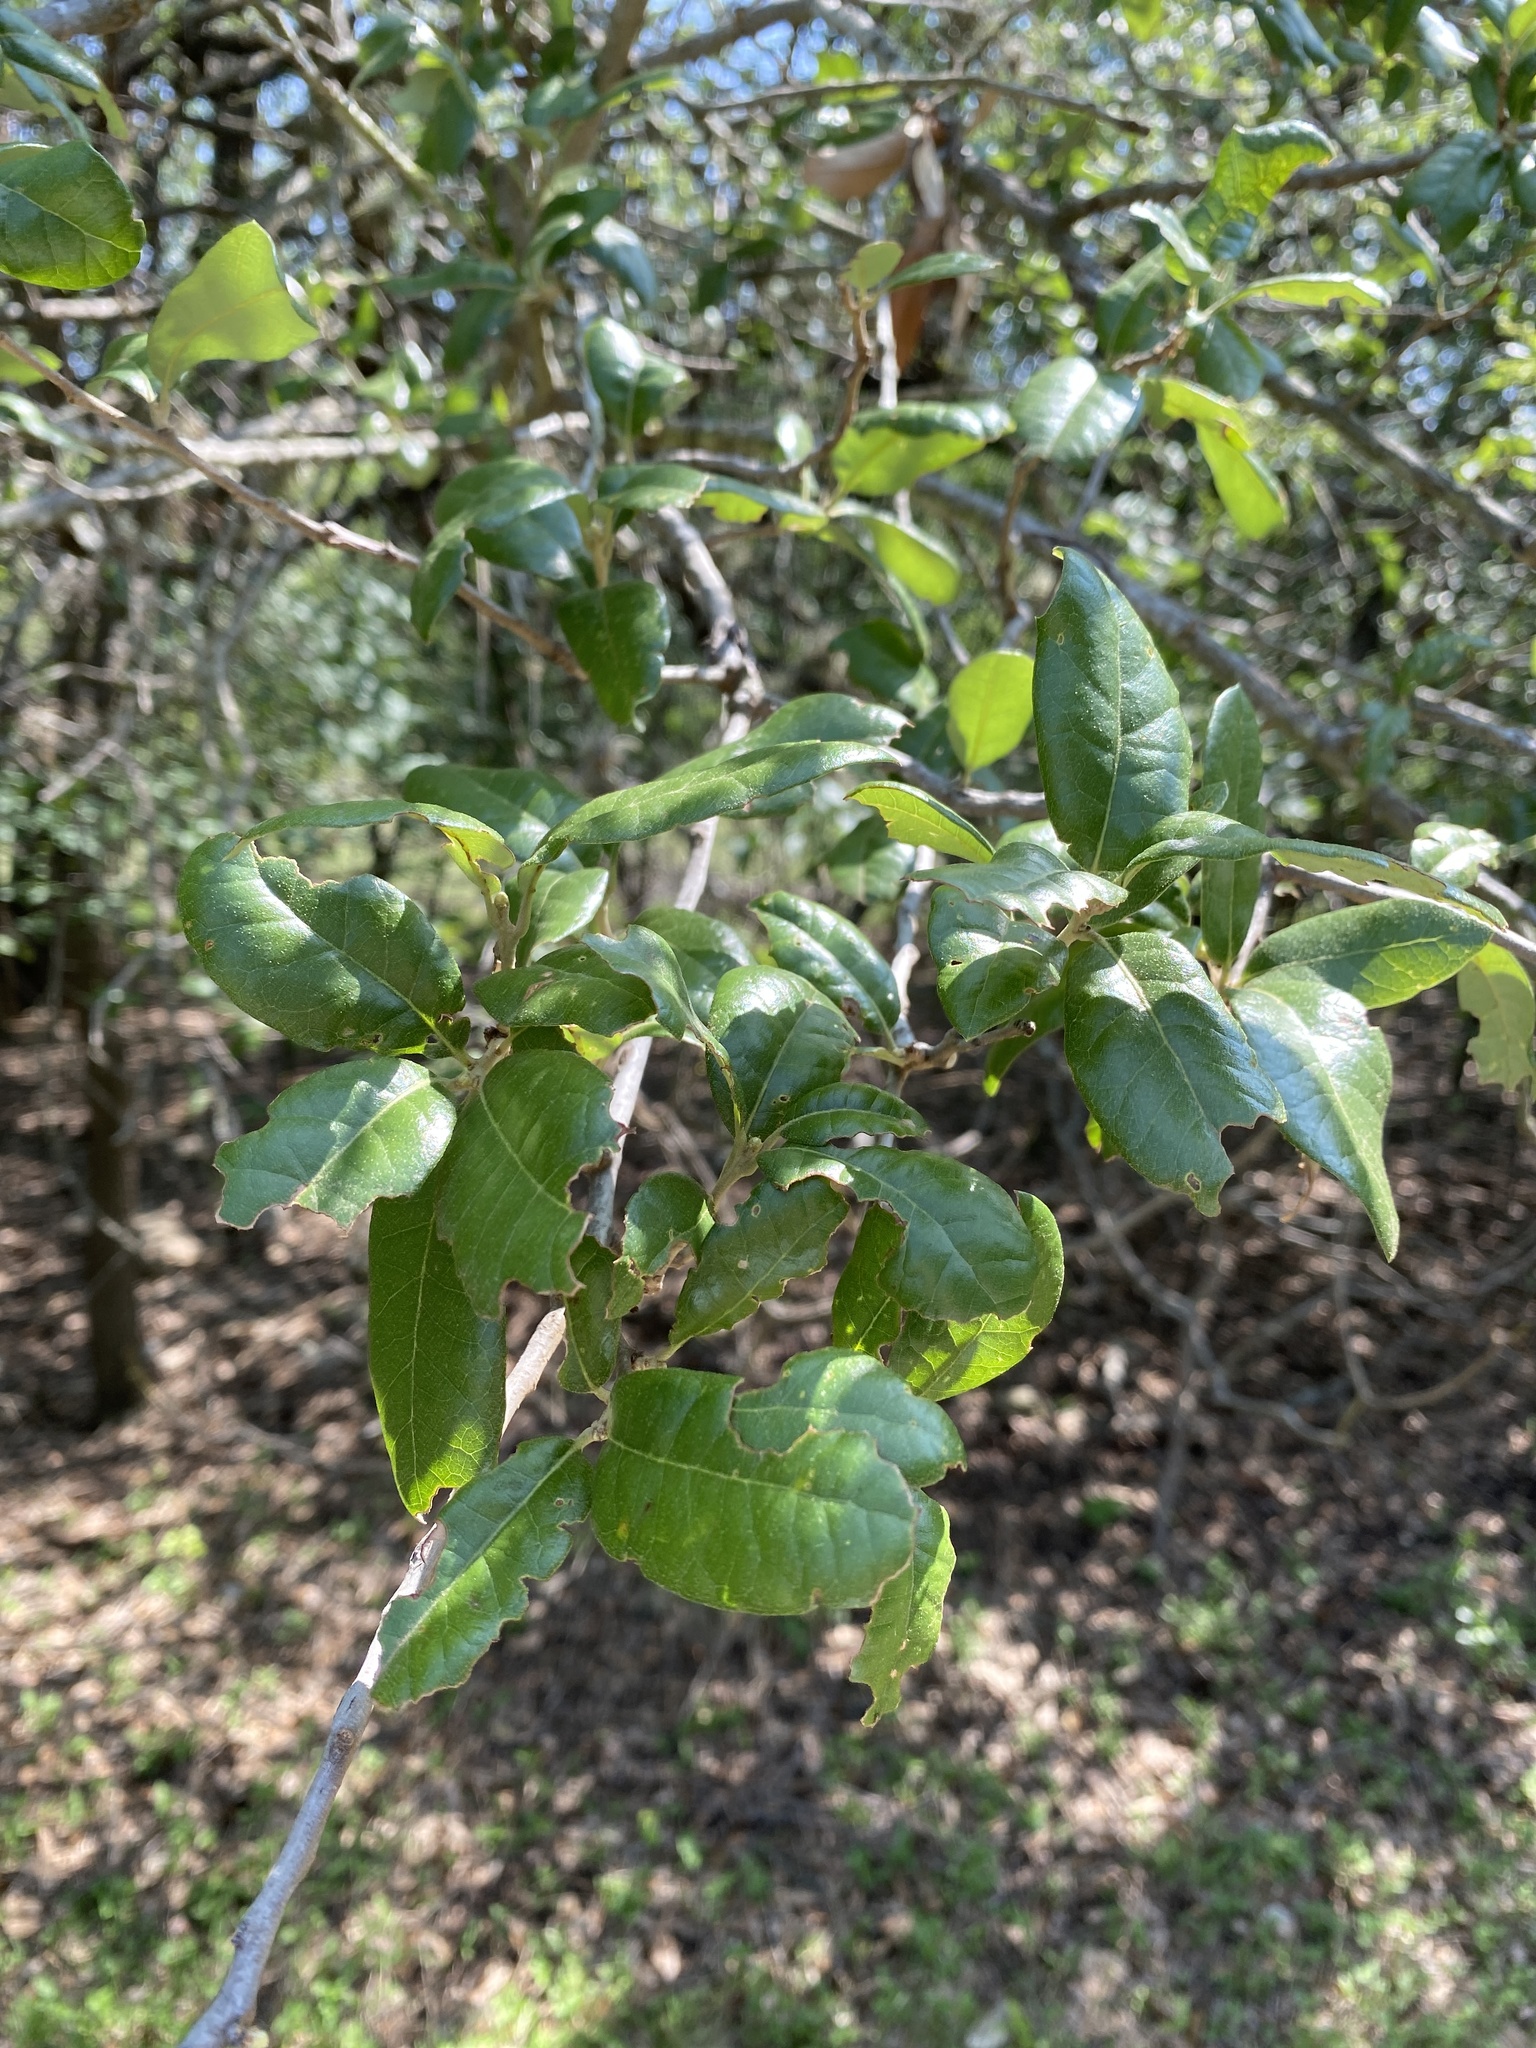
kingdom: Plantae
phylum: Tracheophyta
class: Magnoliopsida
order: Fagales
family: Fagaceae
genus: Quercus
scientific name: Quercus fusiformis
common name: Texas live oak
